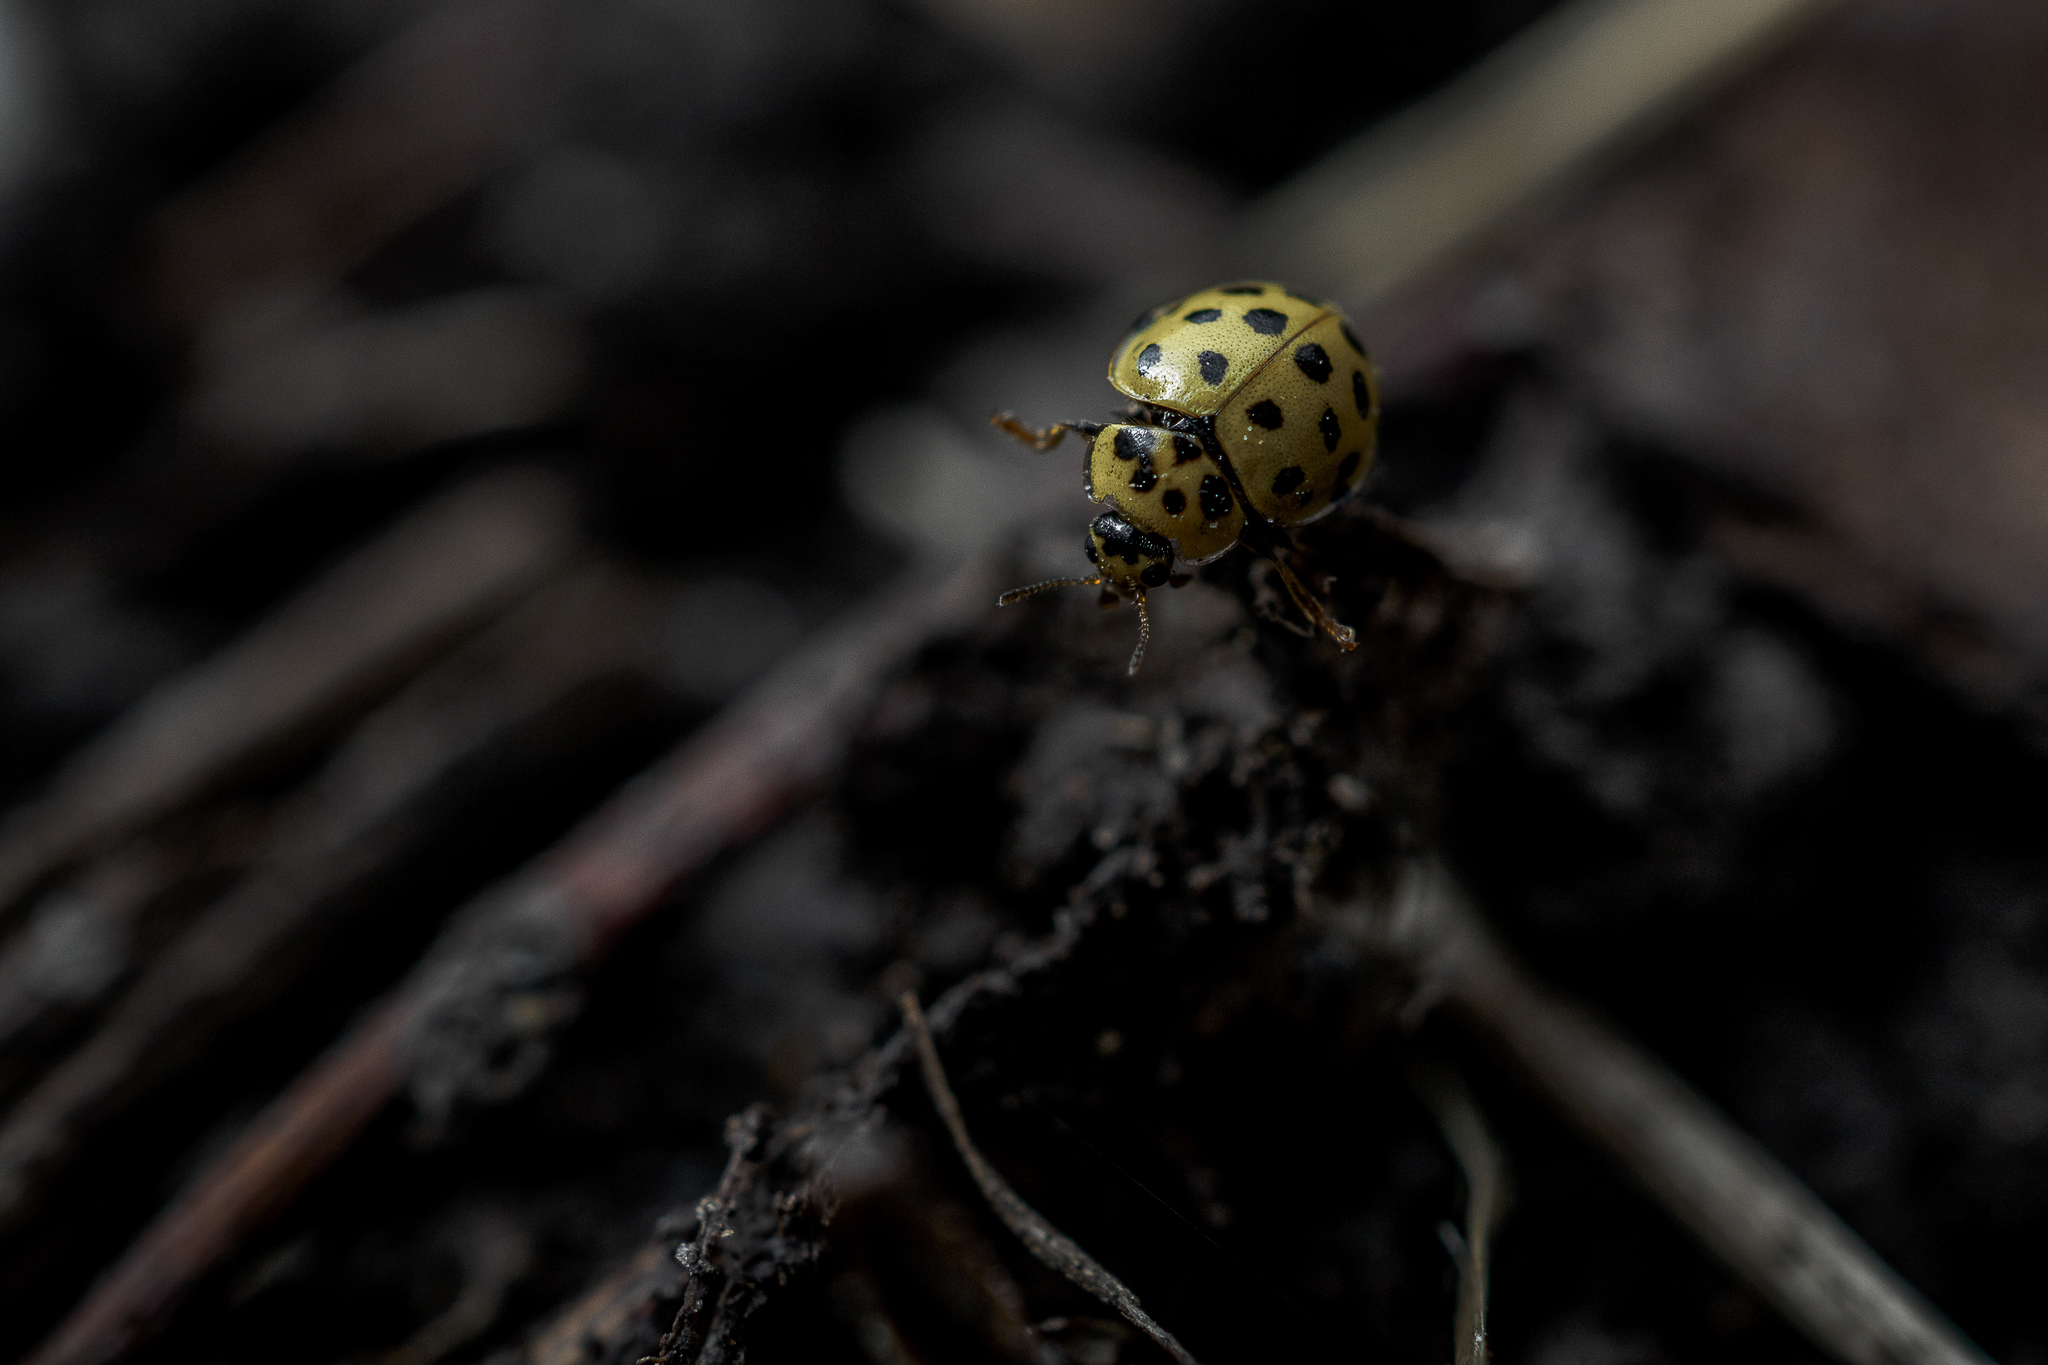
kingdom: Animalia
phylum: Arthropoda
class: Insecta
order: Coleoptera
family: Coccinellidae
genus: Psyllobora
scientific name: Psyllobora vigintiduopunctata
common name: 22-spot ladybird
